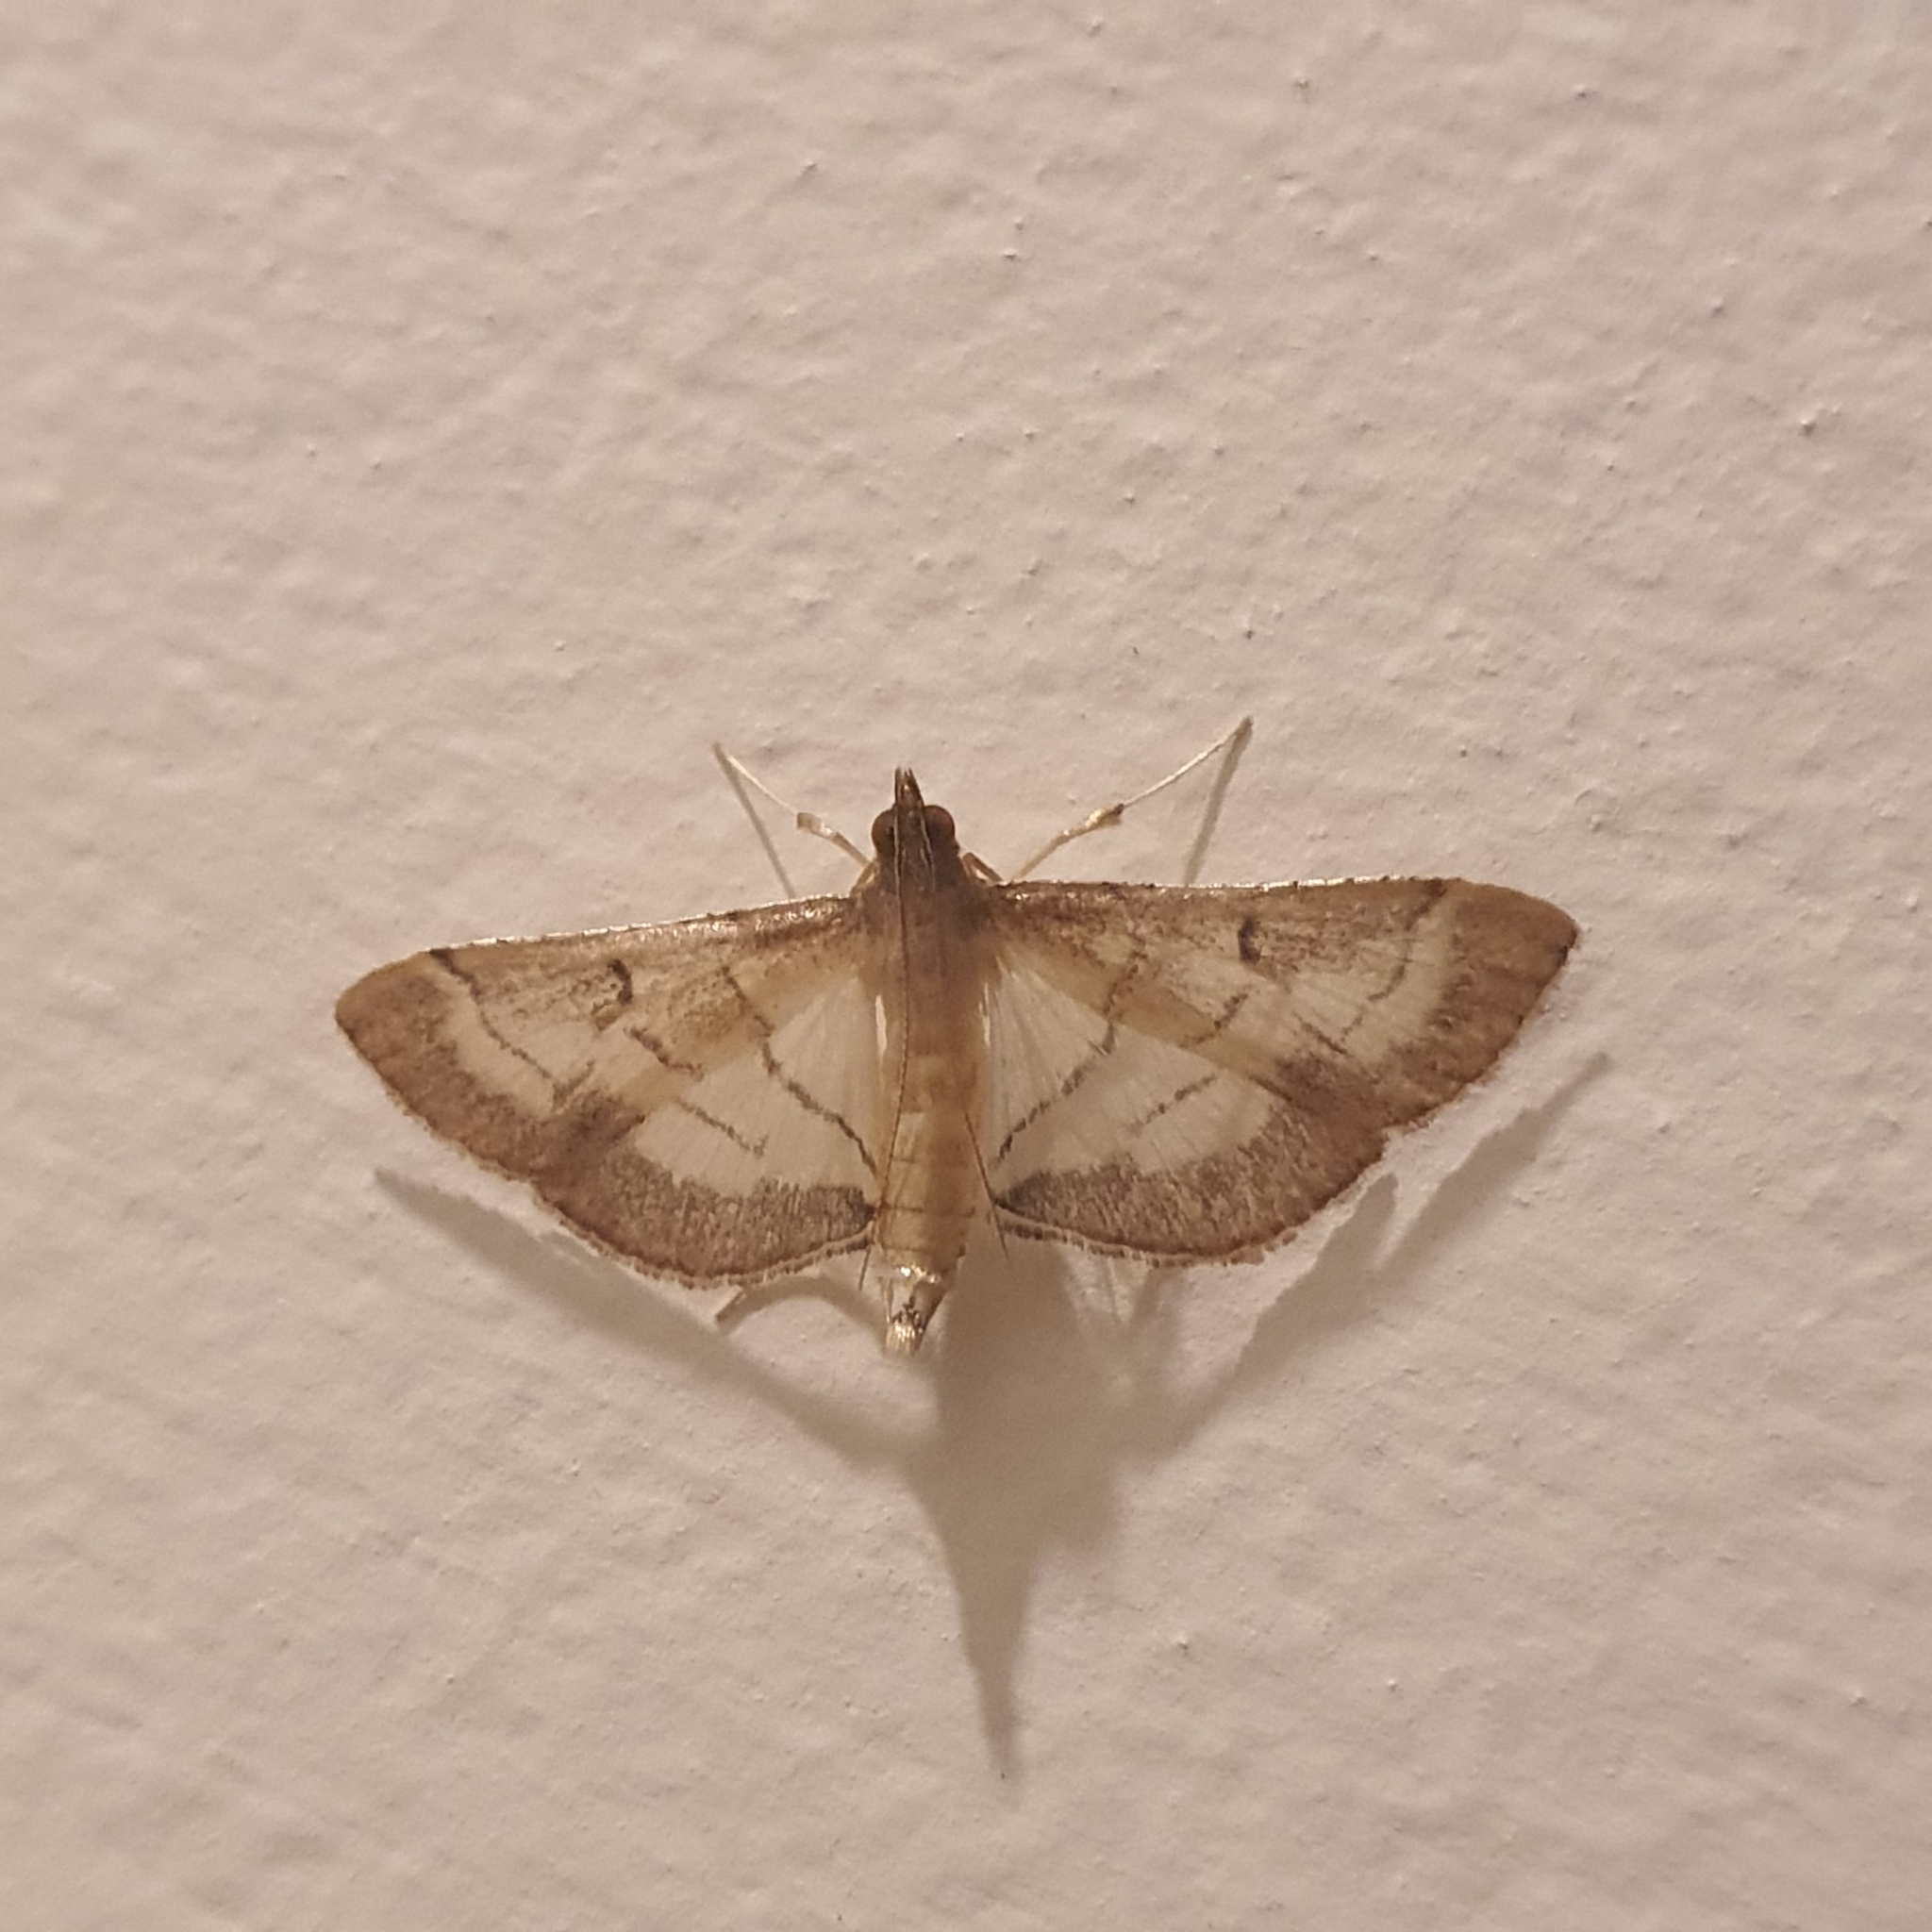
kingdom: Animalia
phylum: Arthropoda
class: Insecta
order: Lepidoptera
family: Crambidae
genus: Cnaphalocrocis
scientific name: Cnaphalocrocis poeyalis
